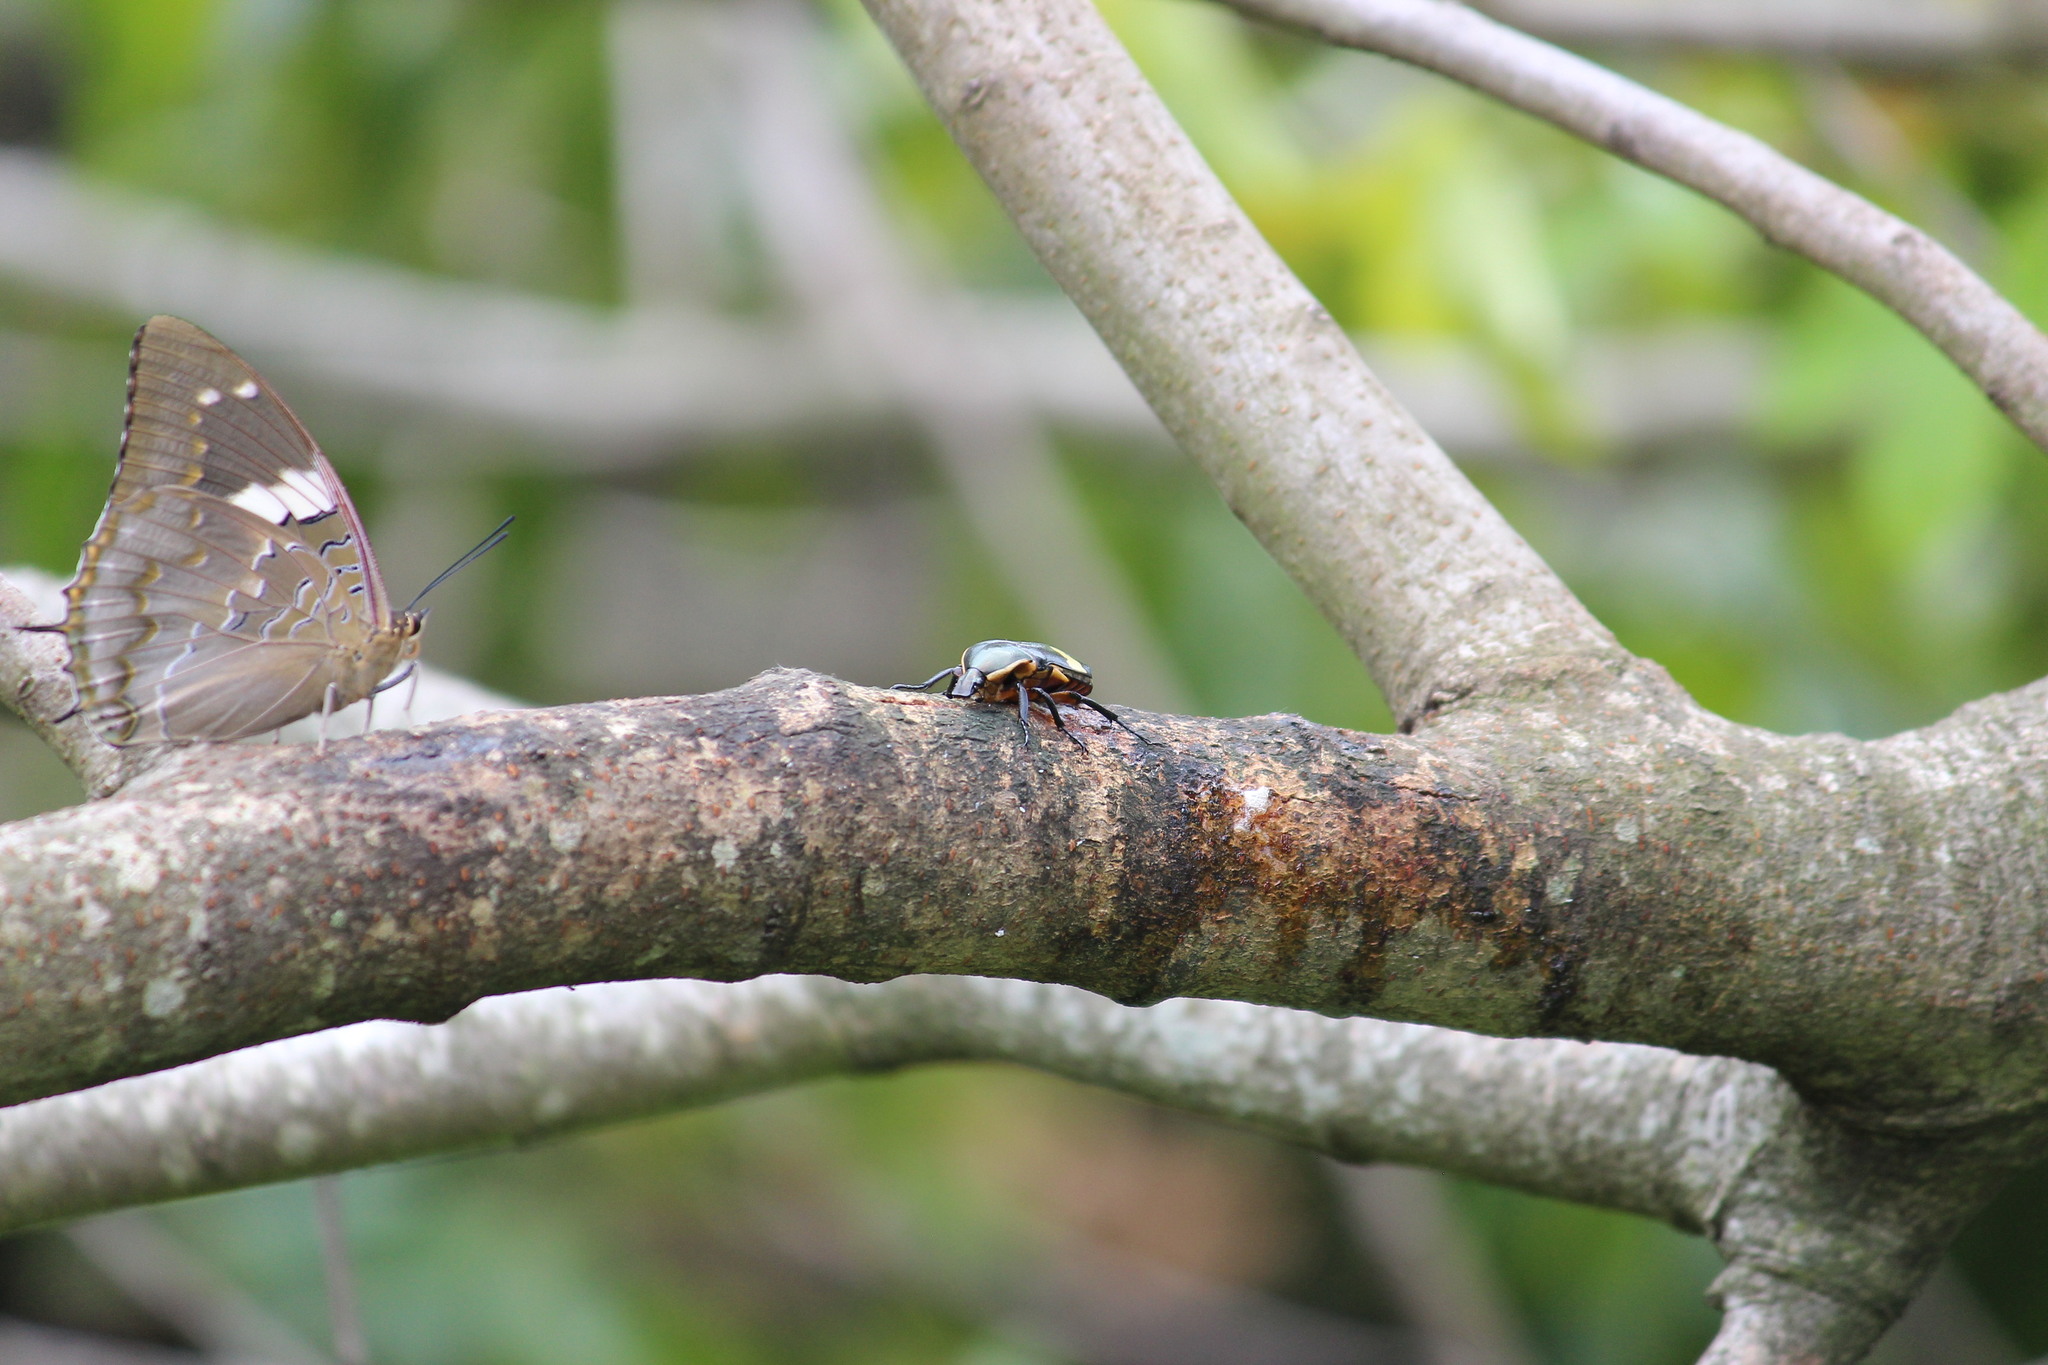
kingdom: Animalia
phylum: Arthropoda
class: Insecta
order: Coleoptera
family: Scarabaeidae
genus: Pedinorrhina
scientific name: Pedinorrhina
